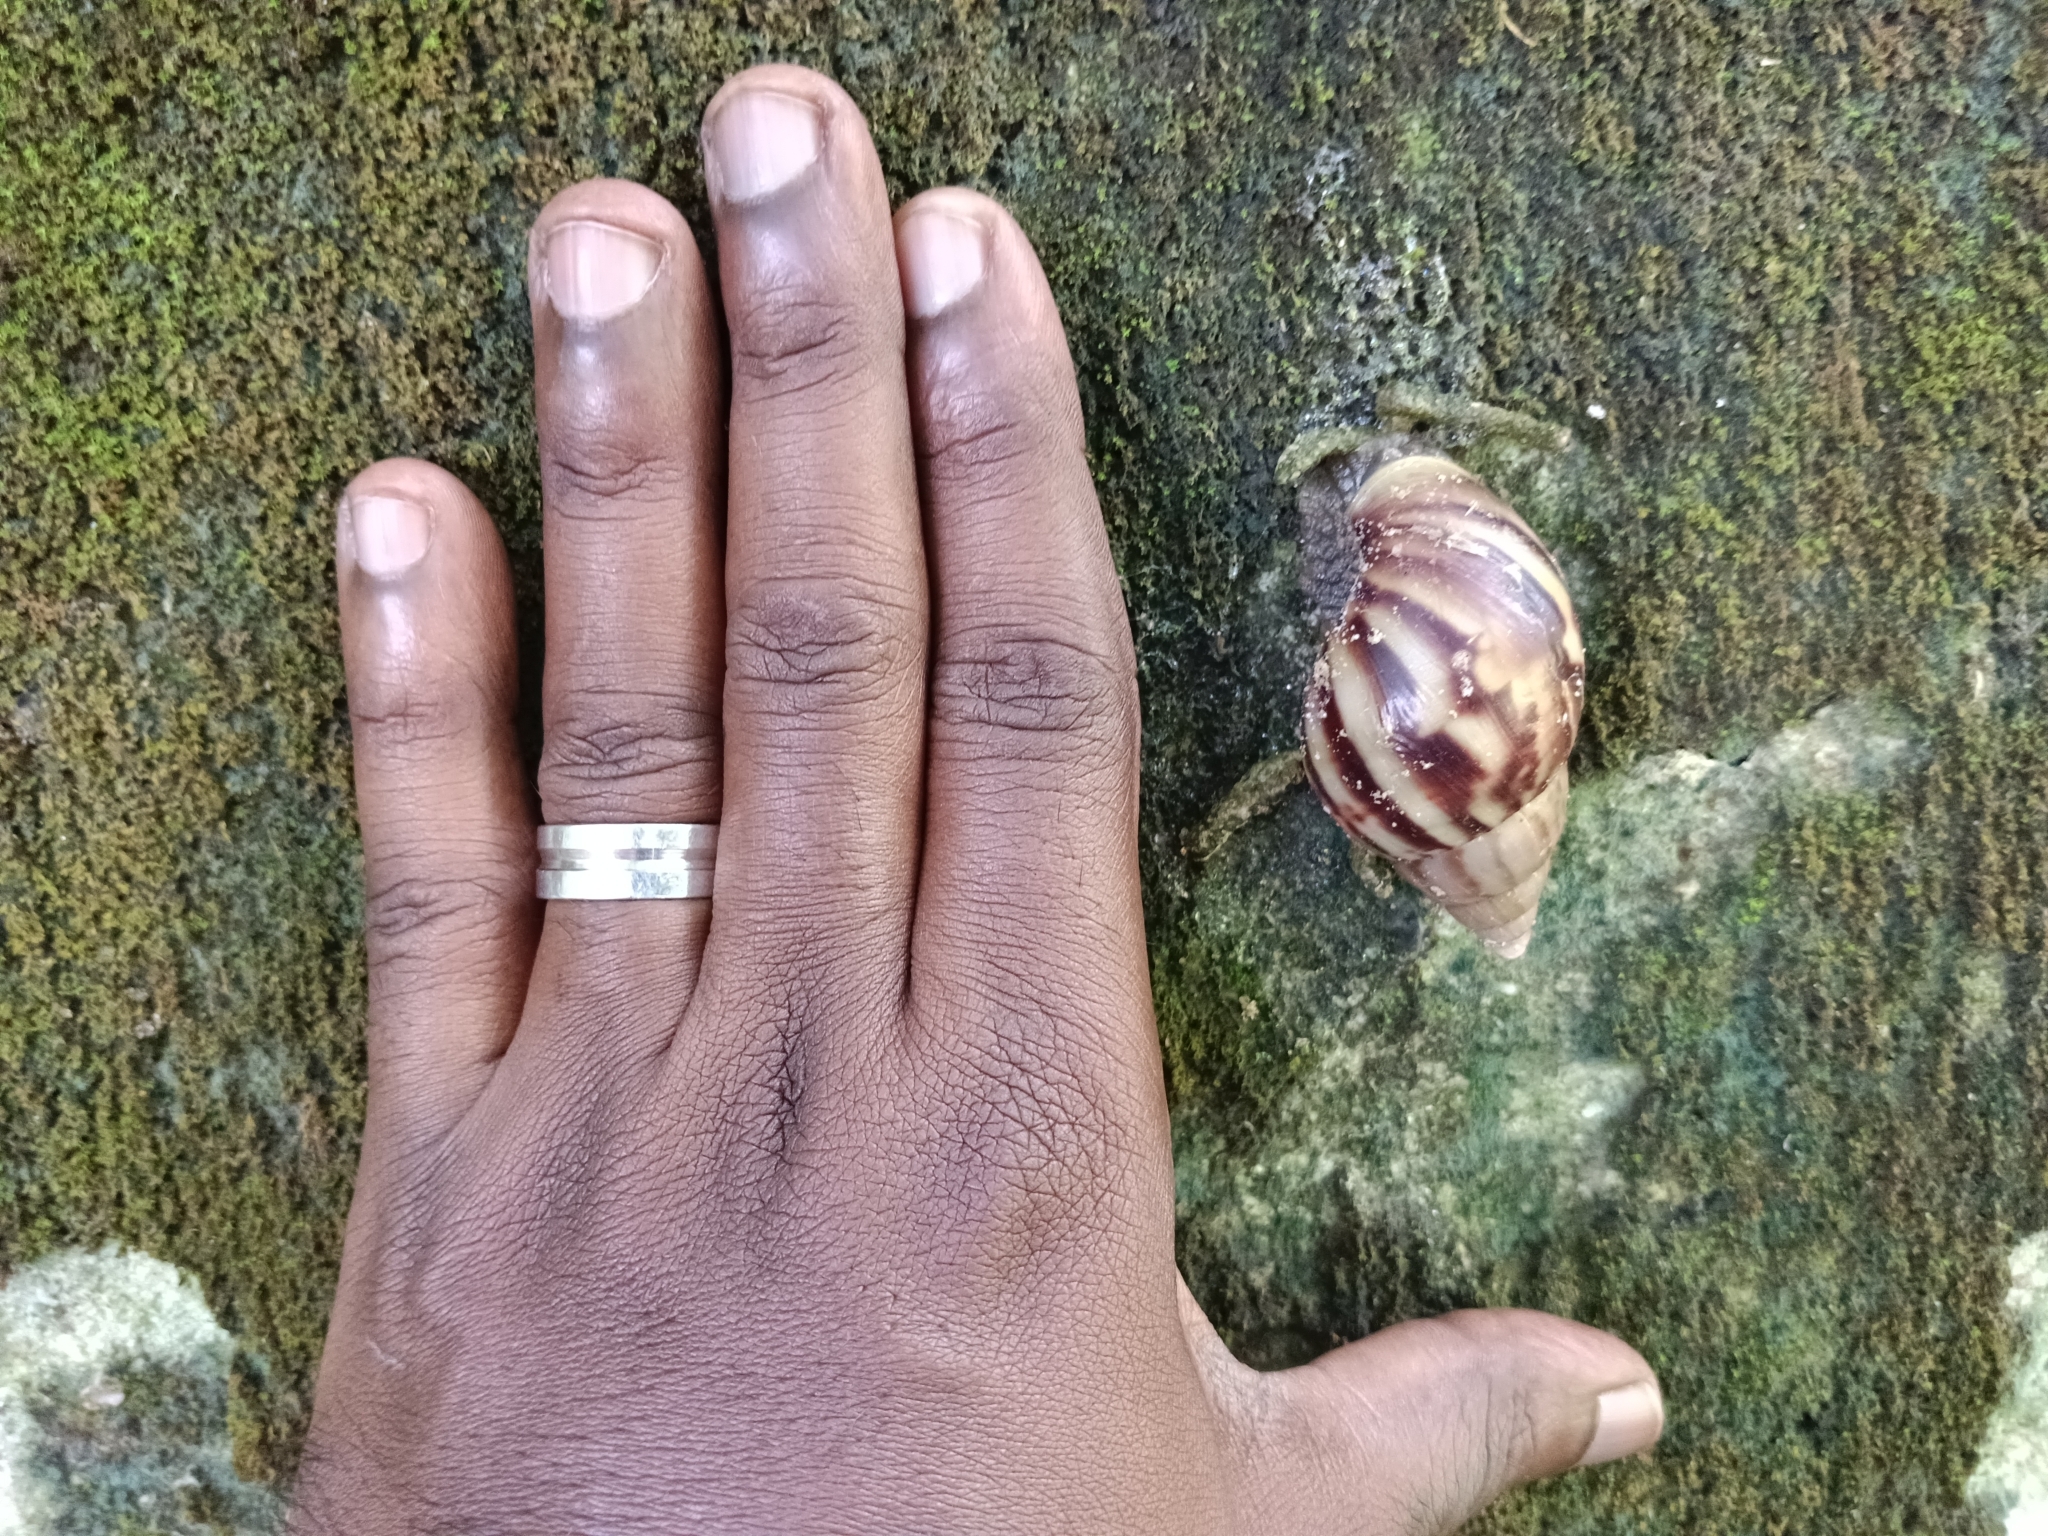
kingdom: Animalia
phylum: Mollusca
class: Gastropoda
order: Stylommatophora
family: Achatinidae
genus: Lissachatina
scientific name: Lissachatina fulica
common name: Giant african snail
